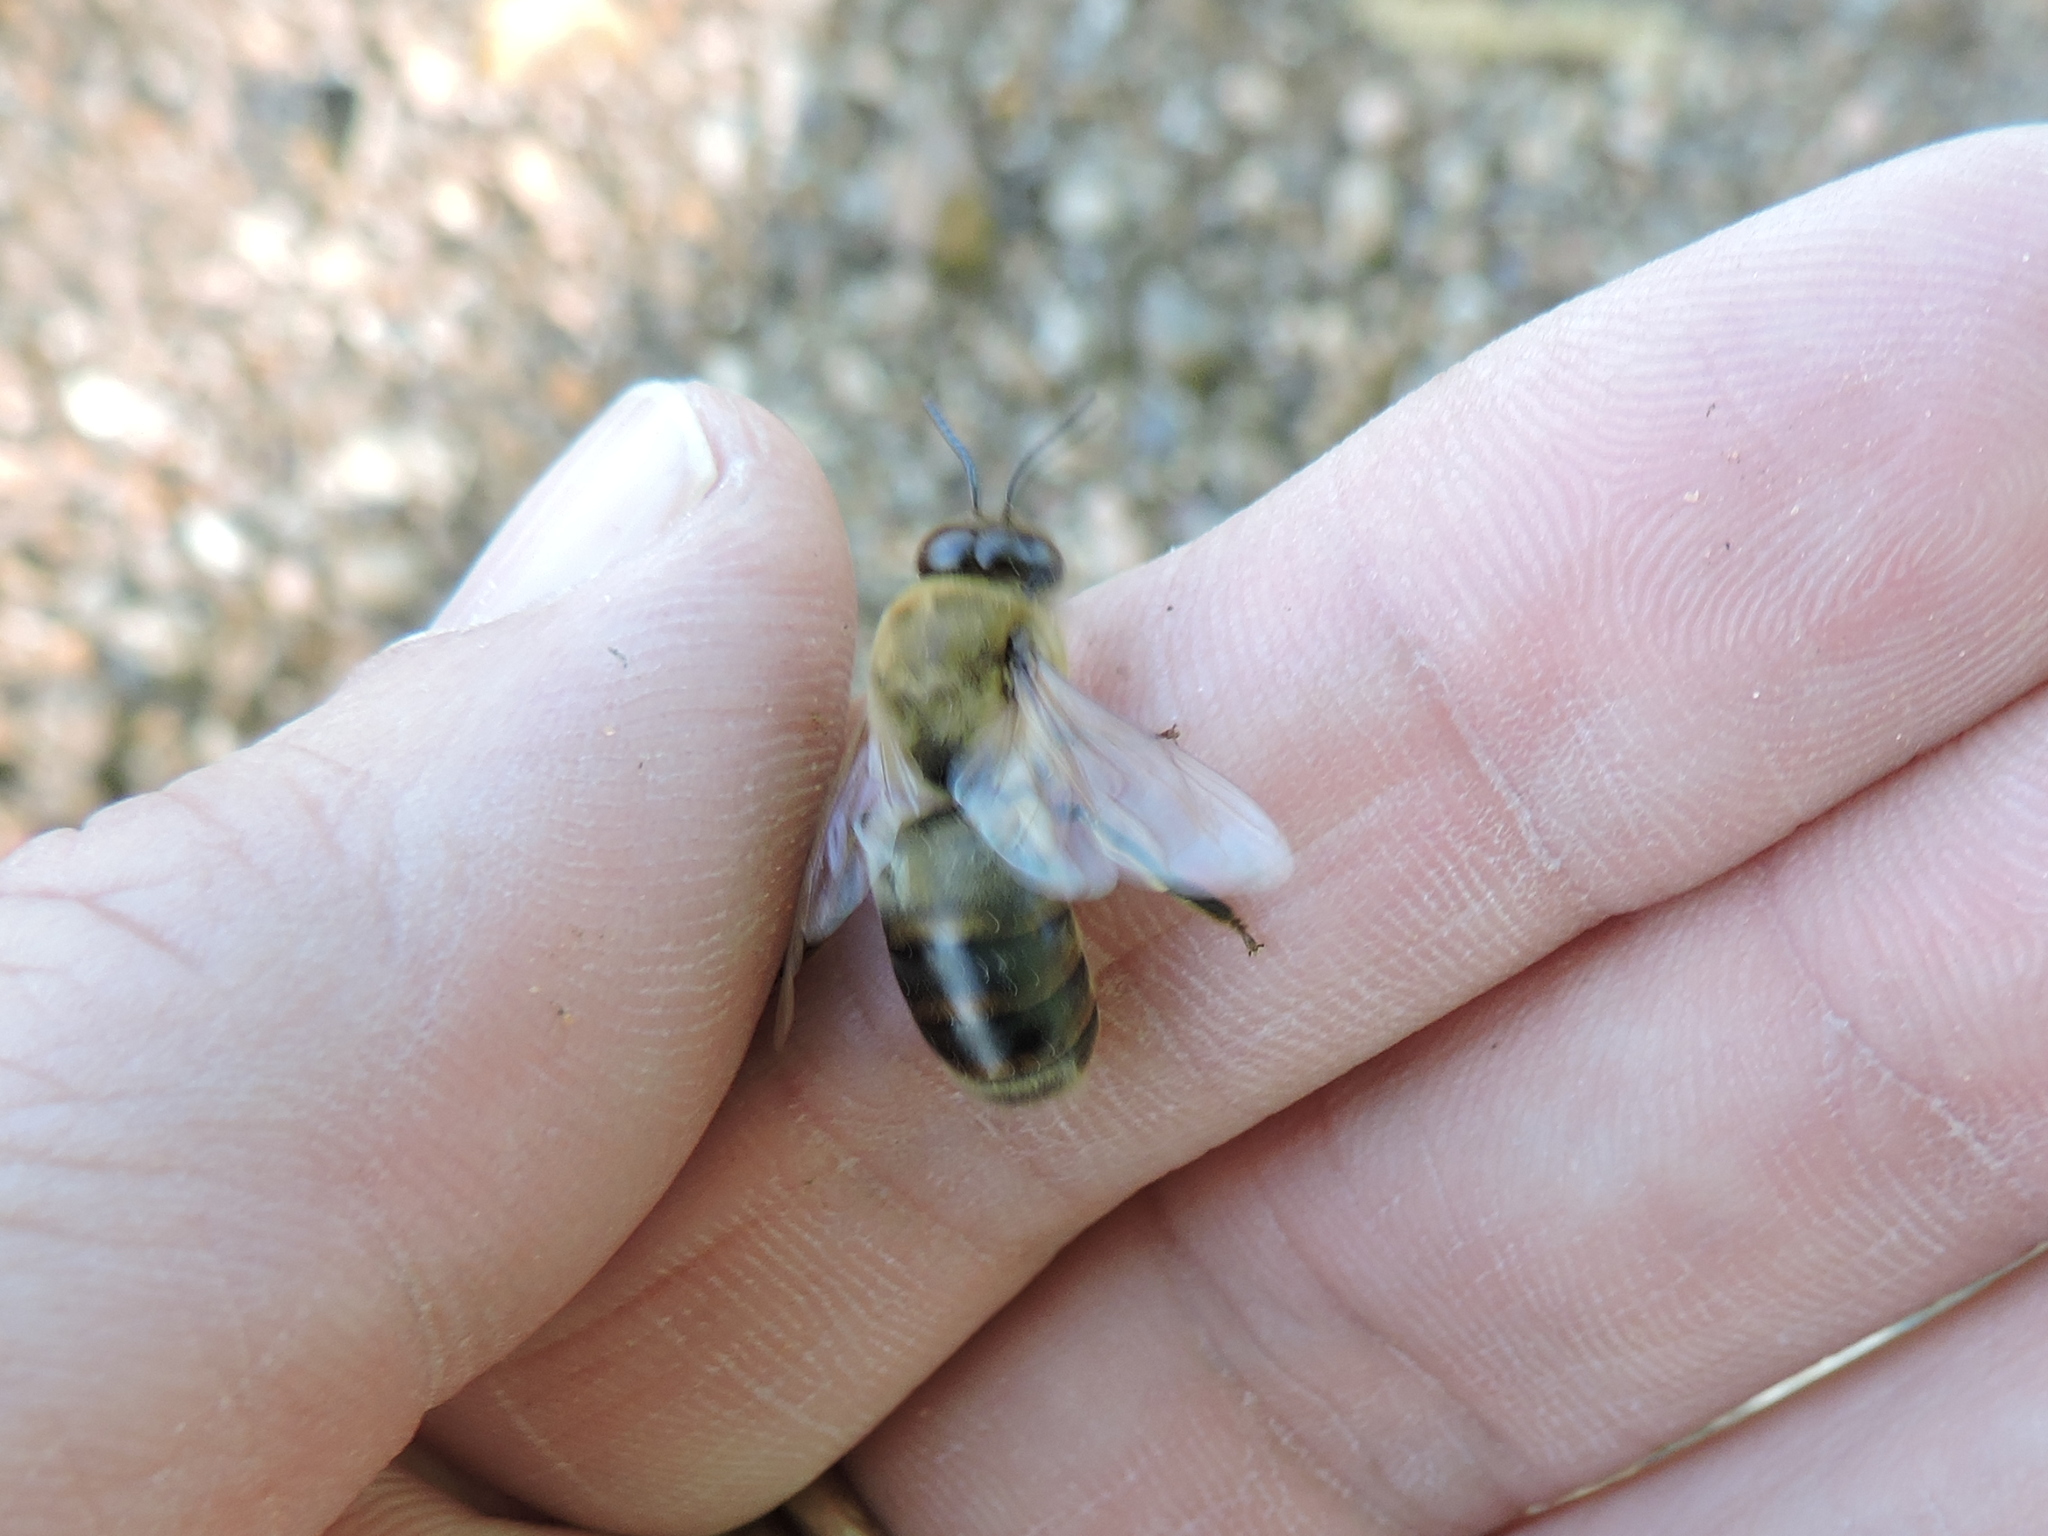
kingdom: Animalia
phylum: Arthropoda
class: Insecta
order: Hymenoptera
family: Apidae
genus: Apis
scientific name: Apis mellifera
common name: Honey bee
